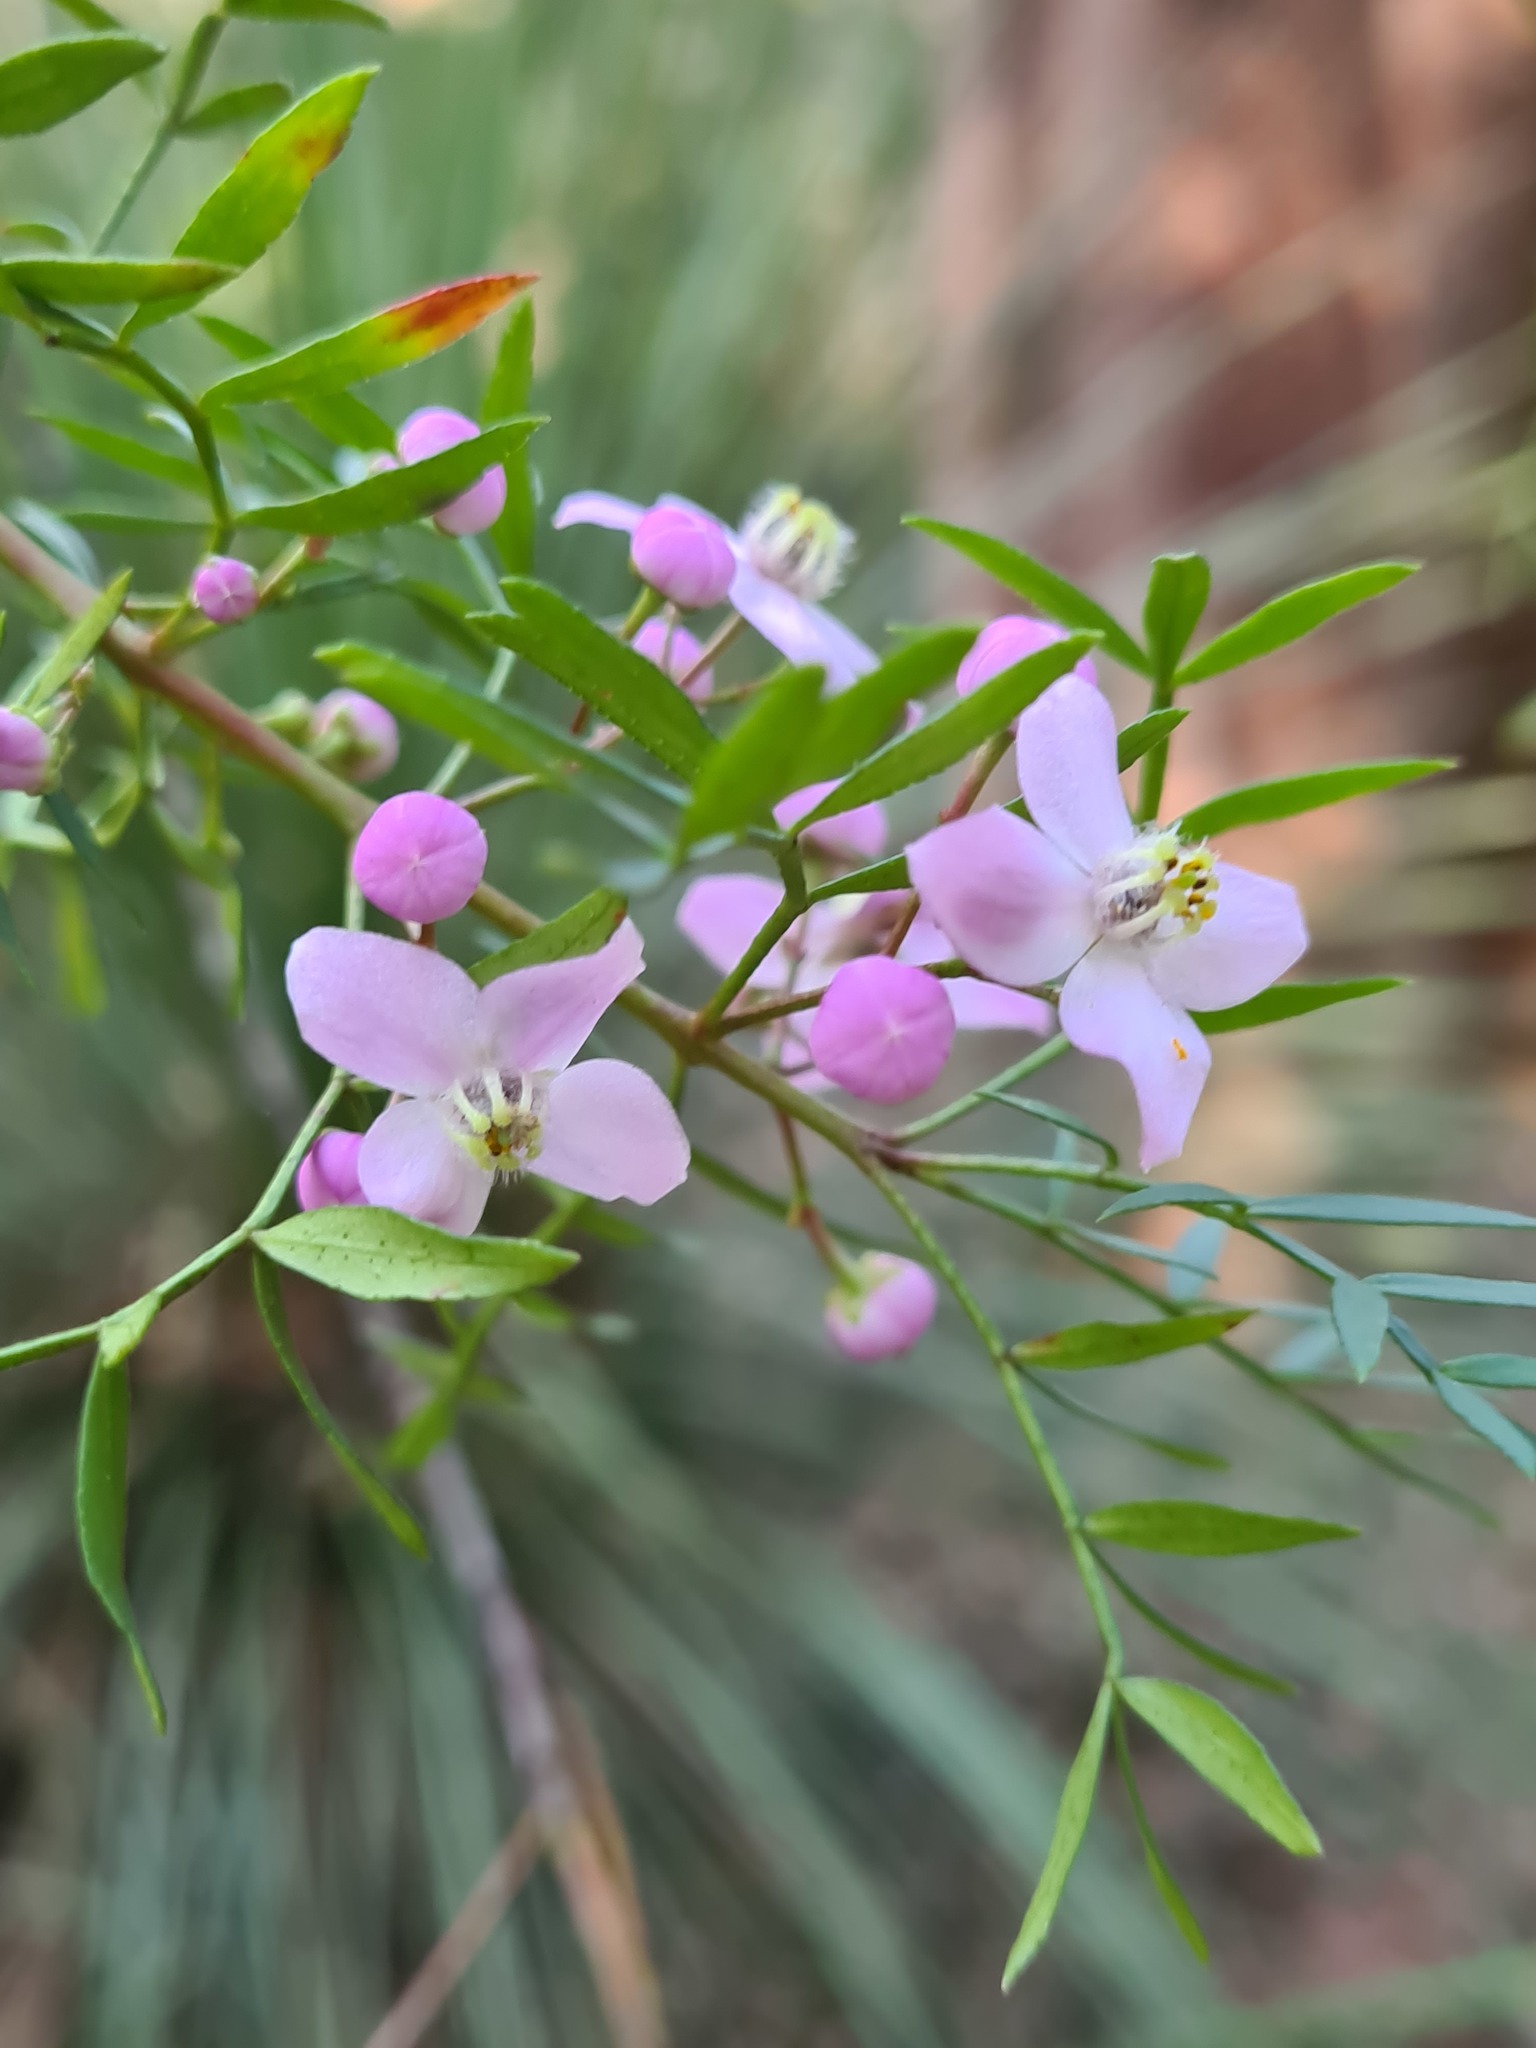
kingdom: Plantae
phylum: Tracheophyta
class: Magnoliopsida
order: Sapindales
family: Rutaceae
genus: Boronia
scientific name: Boronia pinnata
